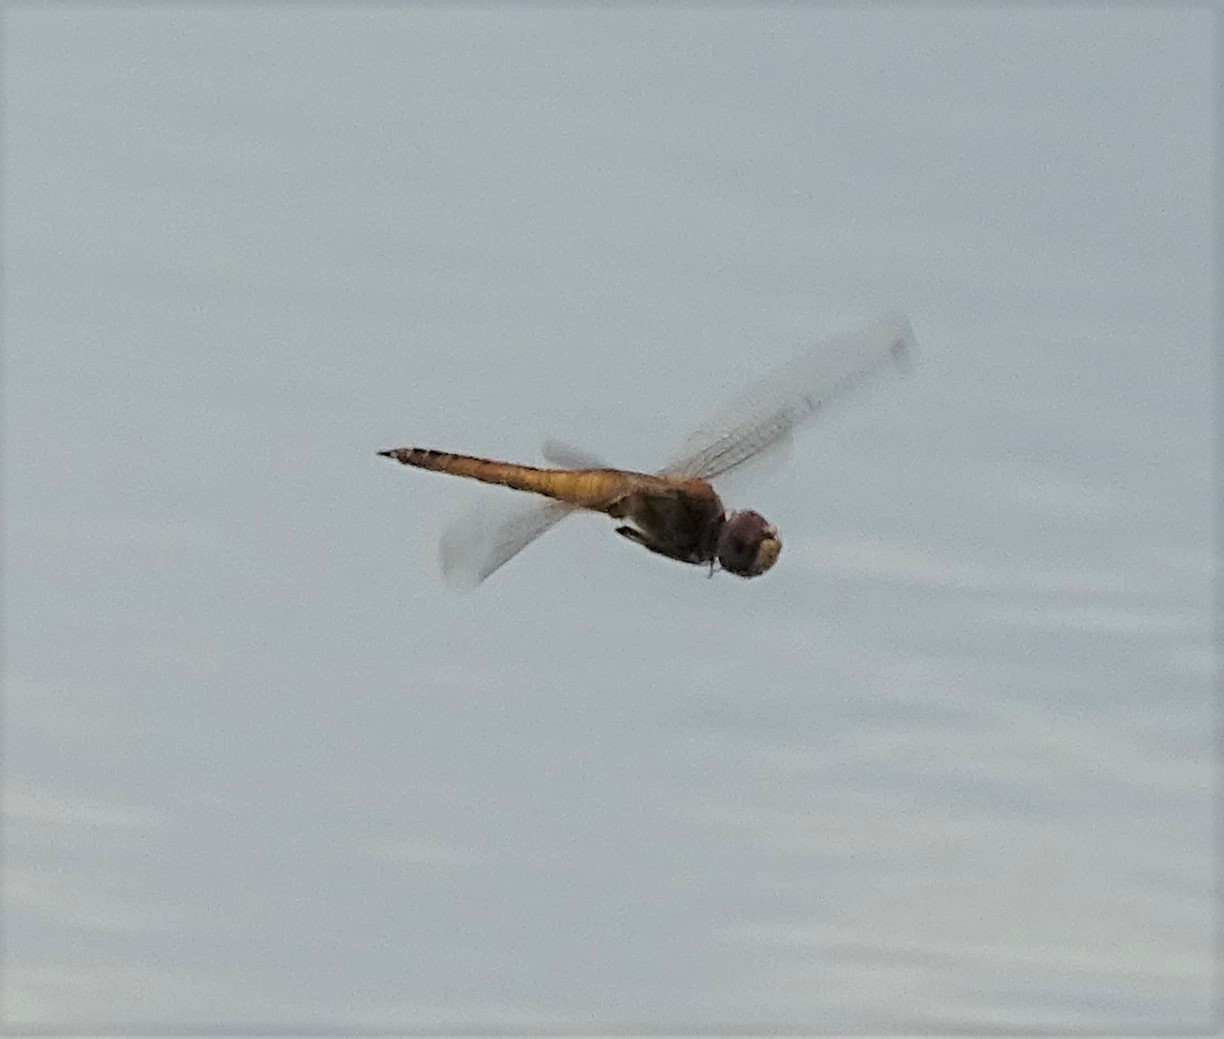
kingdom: Animalia
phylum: Arthropoda
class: Insecta
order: Odonata
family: Libellulidae
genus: Pantala
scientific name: Pantala flavescens
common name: Wandering glider
